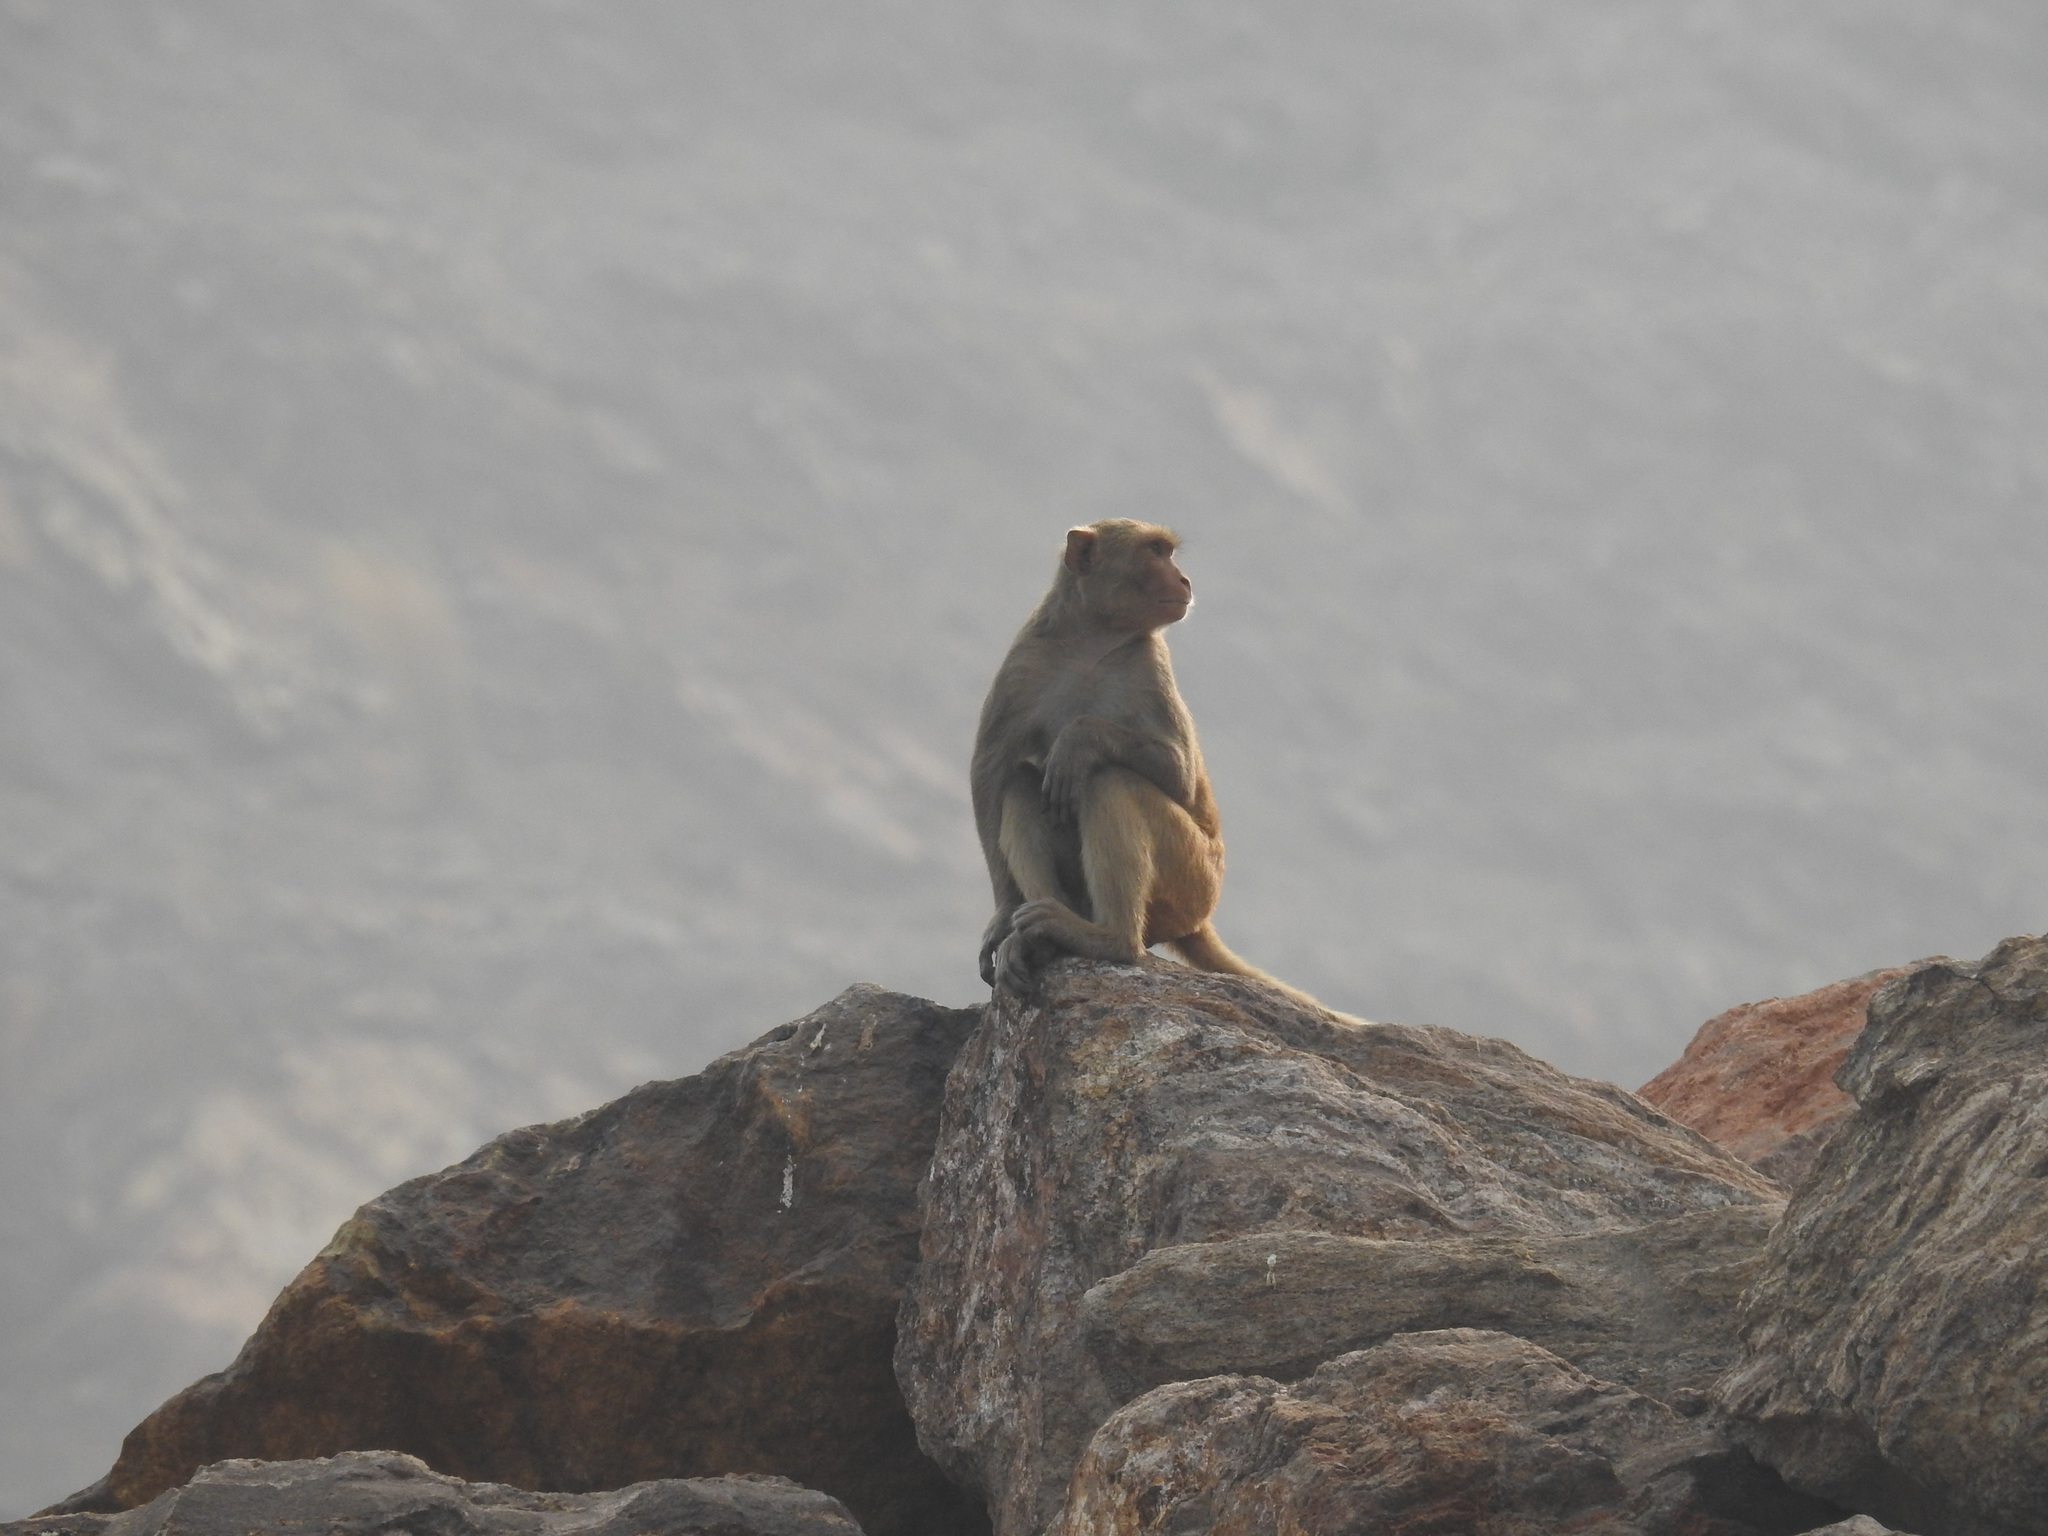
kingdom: Animalia
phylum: Chordata
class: Mammalia
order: Primates
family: Cercopithecidae
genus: Macaca
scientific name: Macaca mulatta
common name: Rhesus monkey
